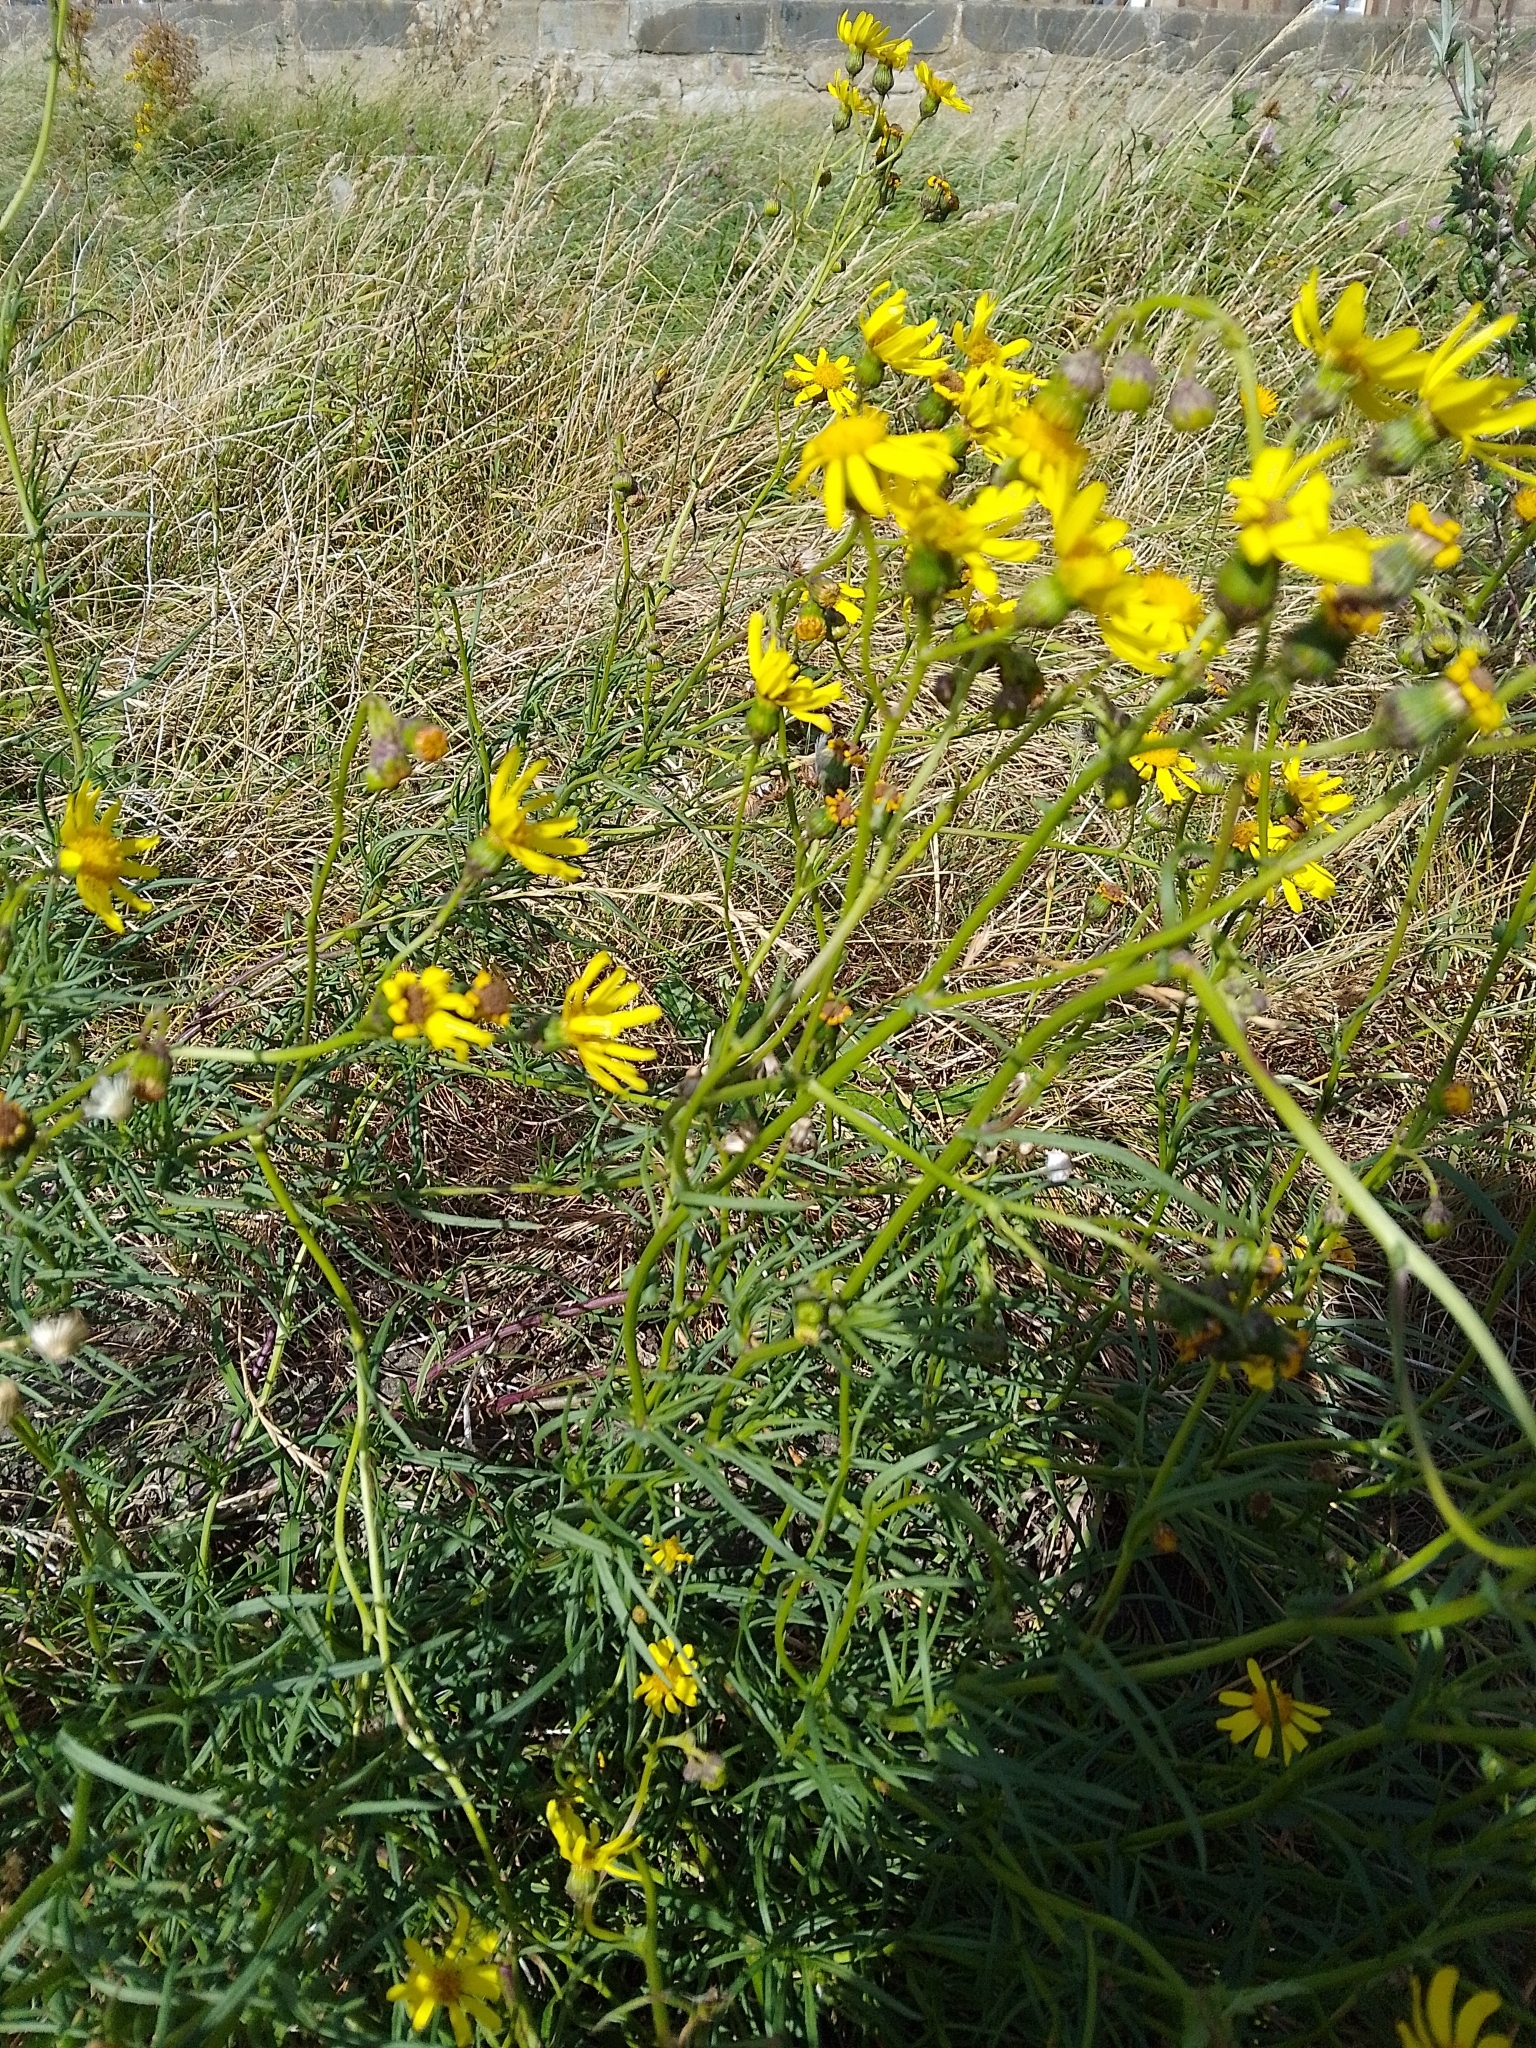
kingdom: Plantae
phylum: Tracheophyta
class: Magnoliopsida
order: Asterales
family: Asteraceae
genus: Senecio
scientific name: Senecio inaequidens
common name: Narrow-leaved ragwort
